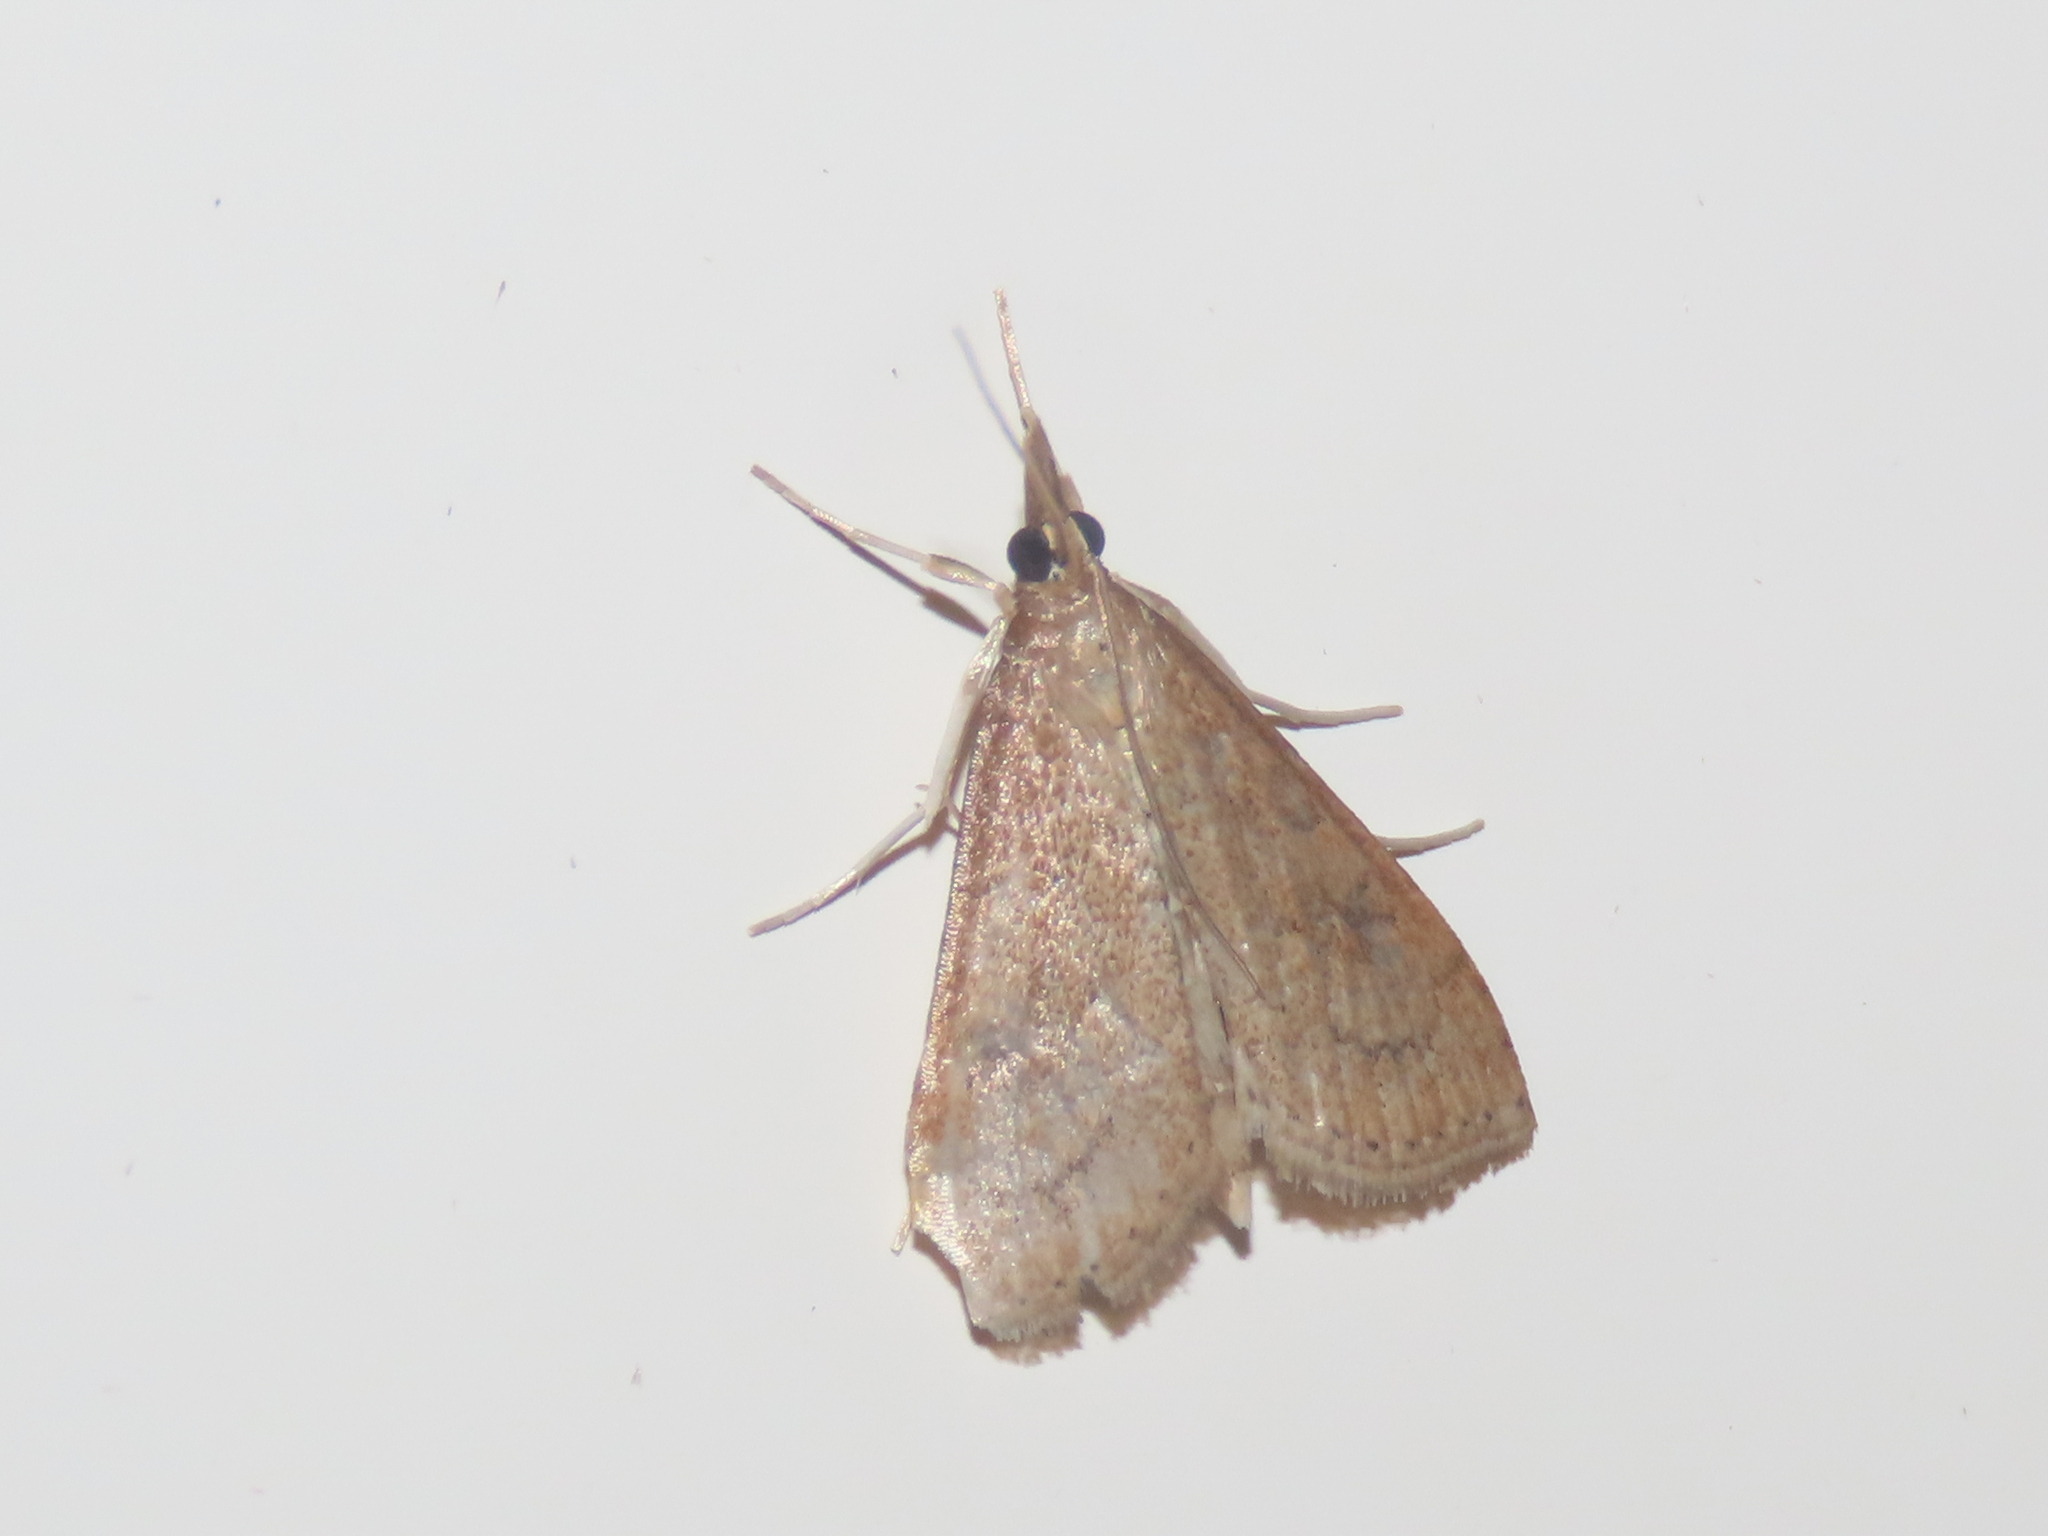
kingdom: Animalia
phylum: Arthropoda
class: Insecta
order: Lepidoptera
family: Crambidae
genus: Udea
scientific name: Udea rubigalis
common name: Celery leaftier moth
